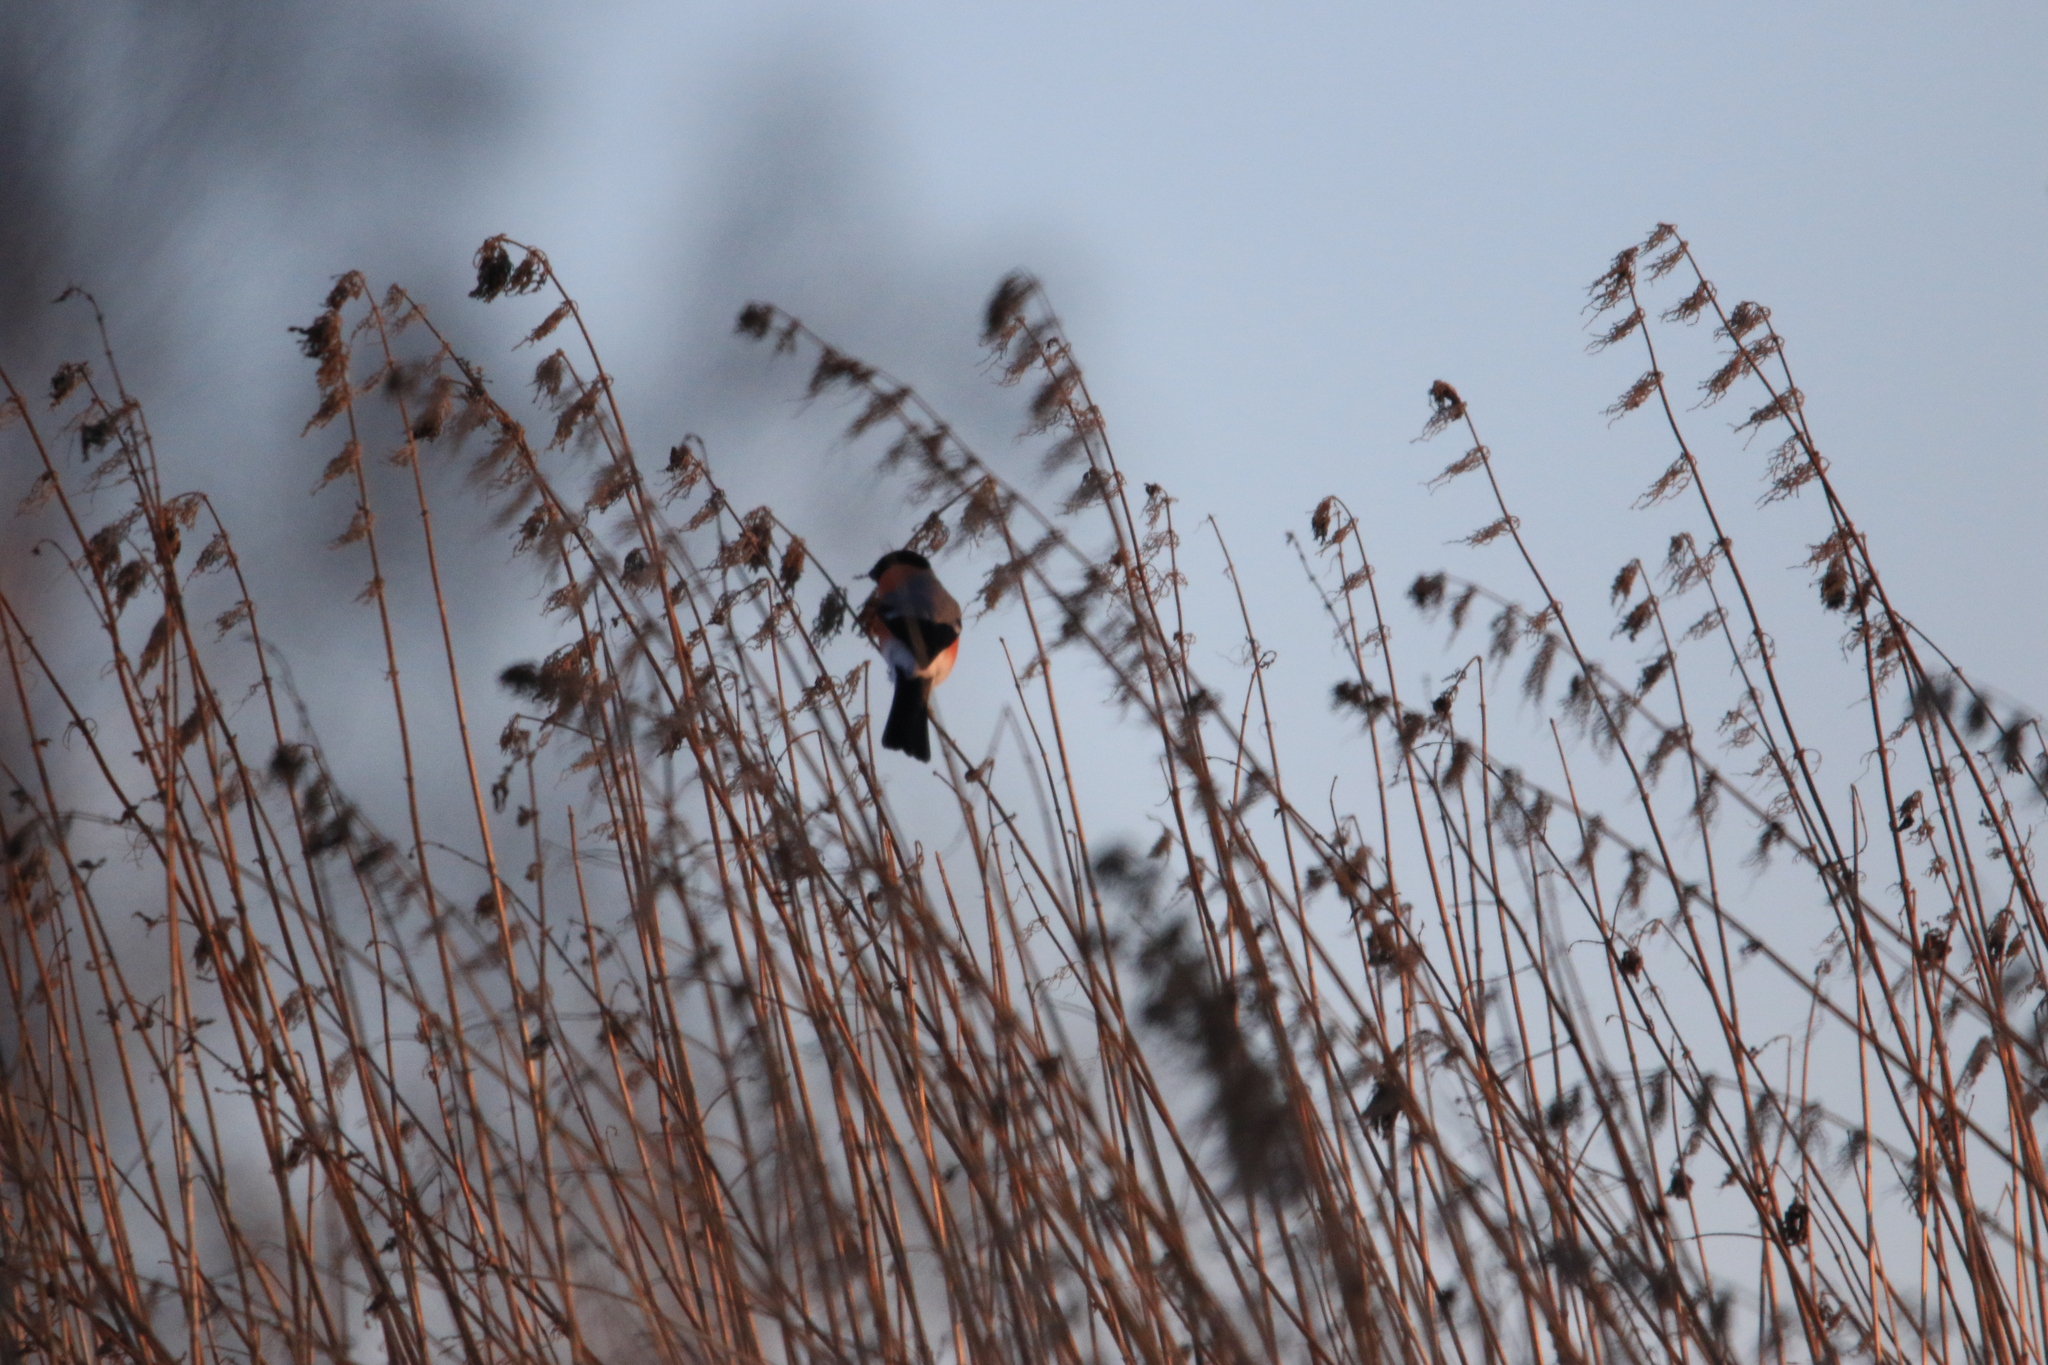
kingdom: Animalia
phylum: Chordata
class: Aves
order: Passeriformes
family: Fringillidae
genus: Pyrrhula
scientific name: Pyrrhula pyrrhula
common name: Eurasian bullfinch
